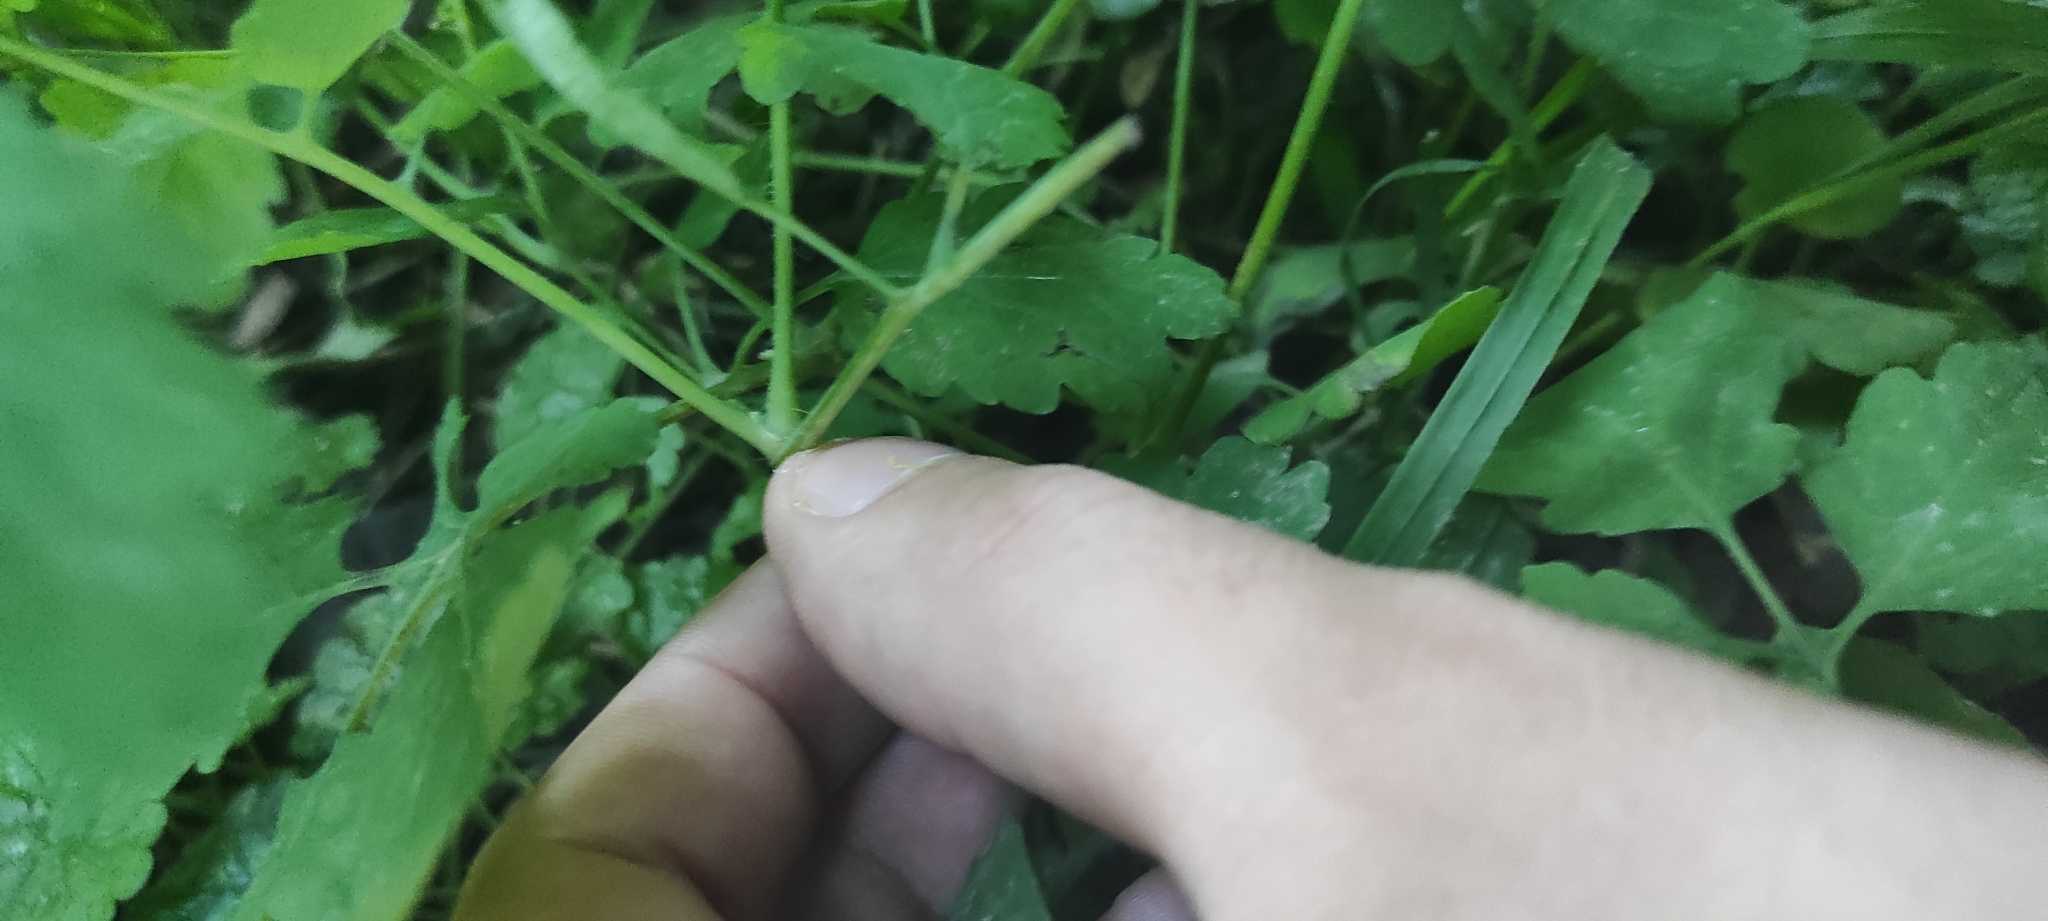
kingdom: Plantae
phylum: Tracheophyta
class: Magnoliopsida
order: Ranunculales
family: Papaveraceae
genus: Chelidonium
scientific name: Chelidonium majus
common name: Greater celandine
